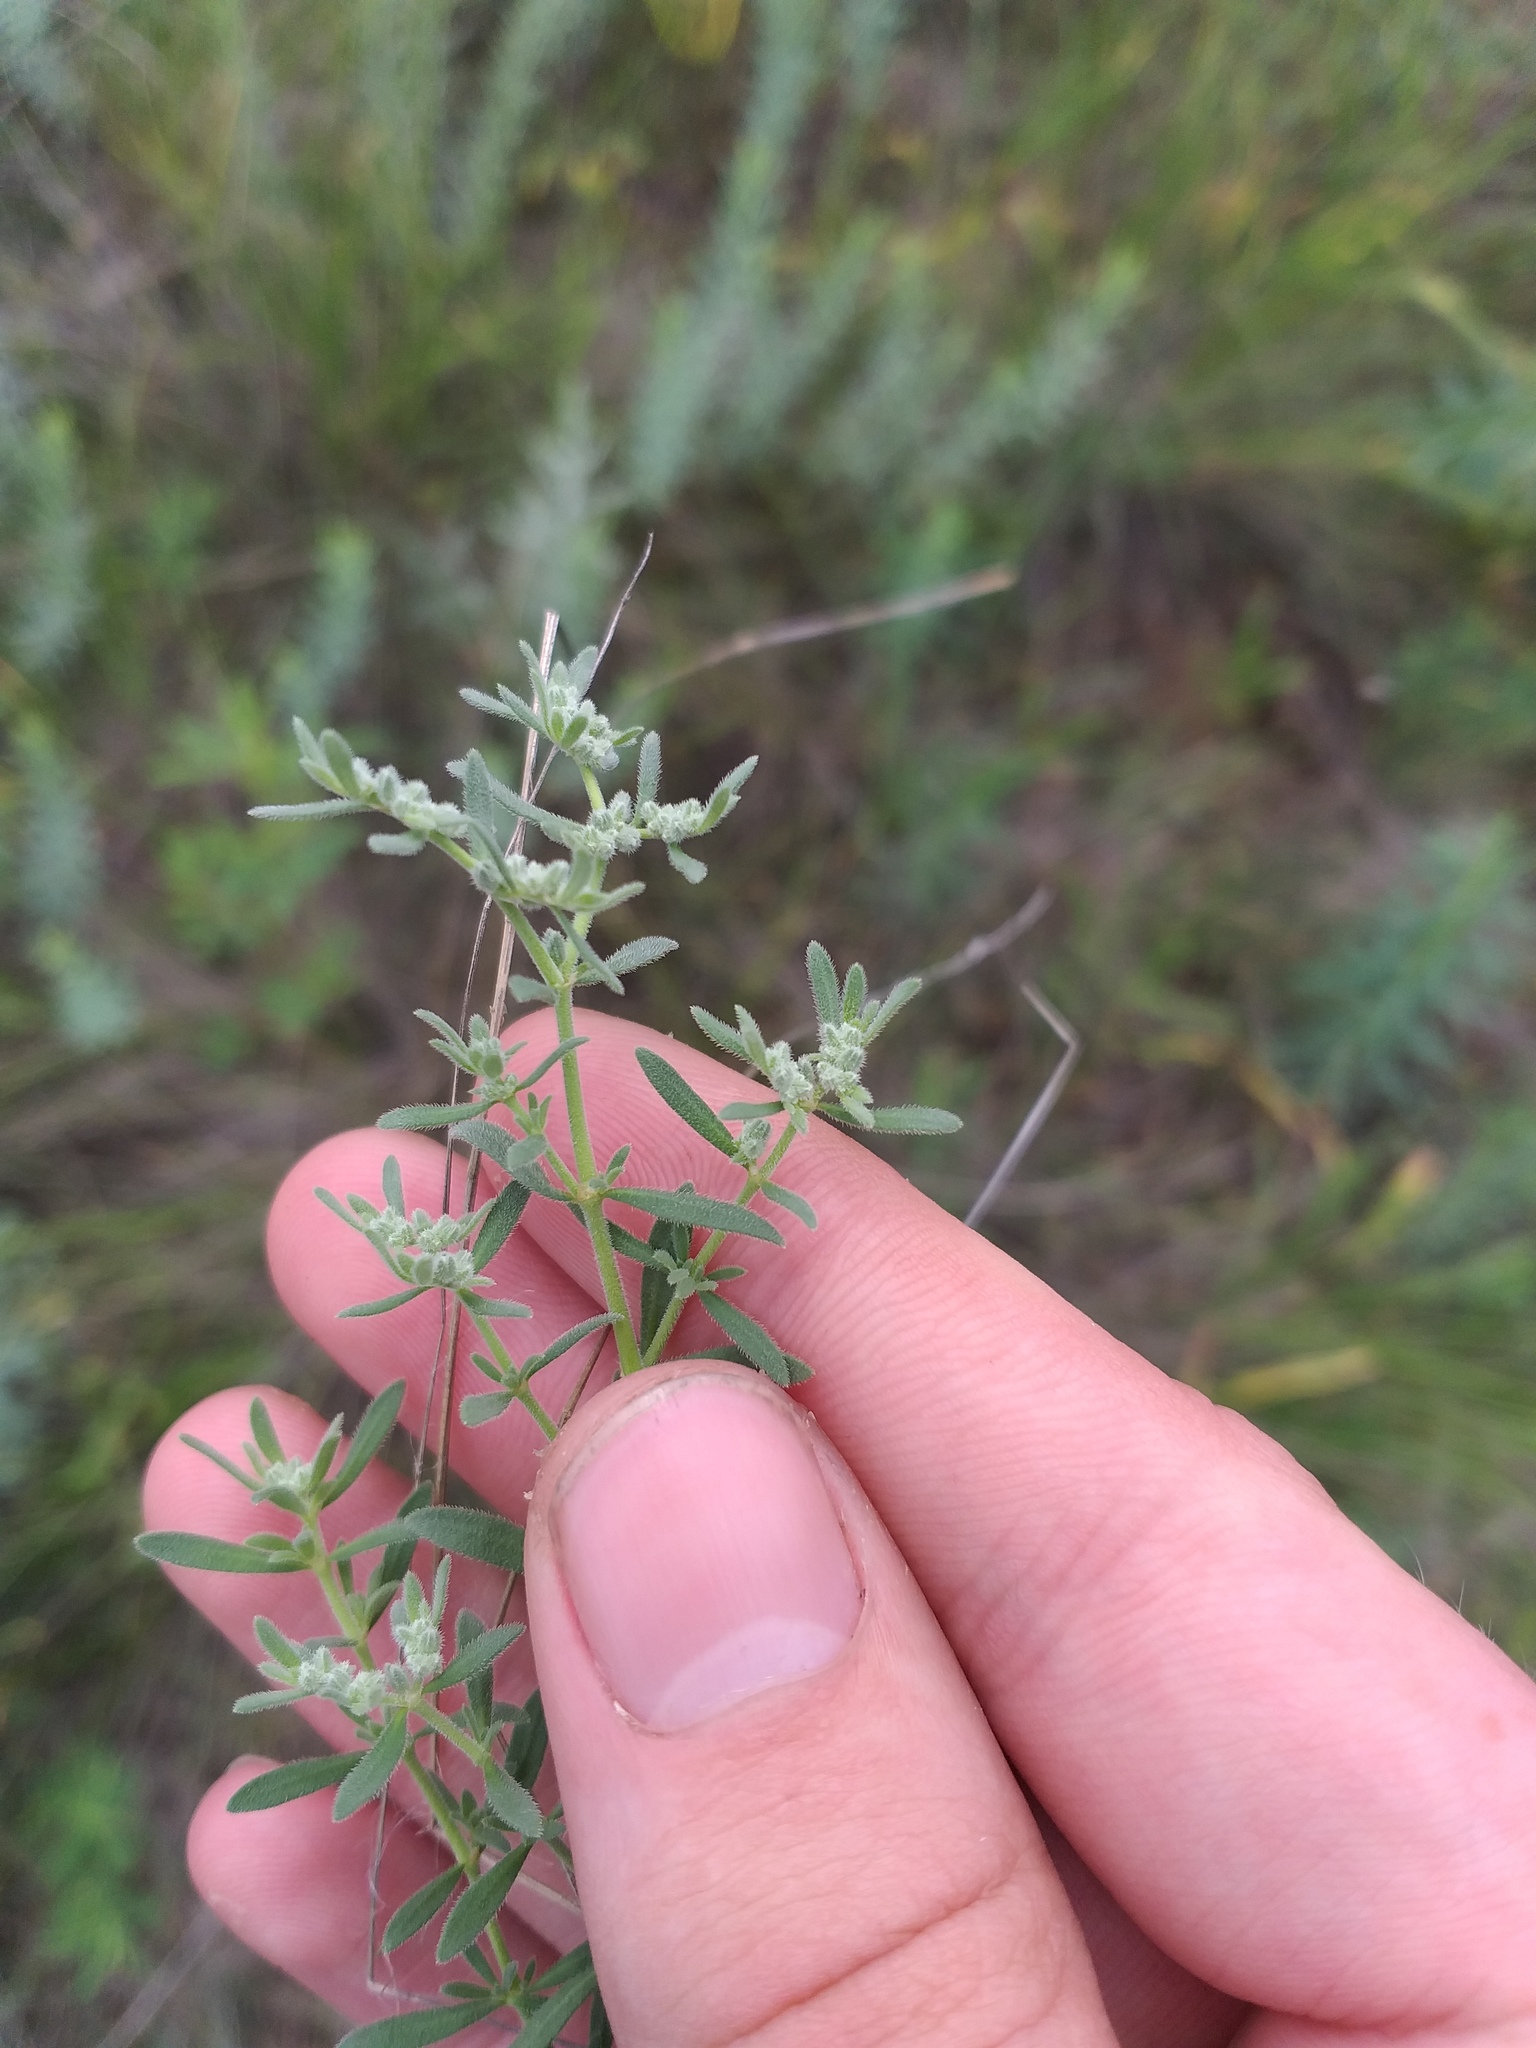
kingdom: Plantae
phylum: Tracheophyta
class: Magnoliopsida
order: Caryophyllales
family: Caryophyllaceae
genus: Herniaria
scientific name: Herniaria incana
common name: Gray rupturewort
